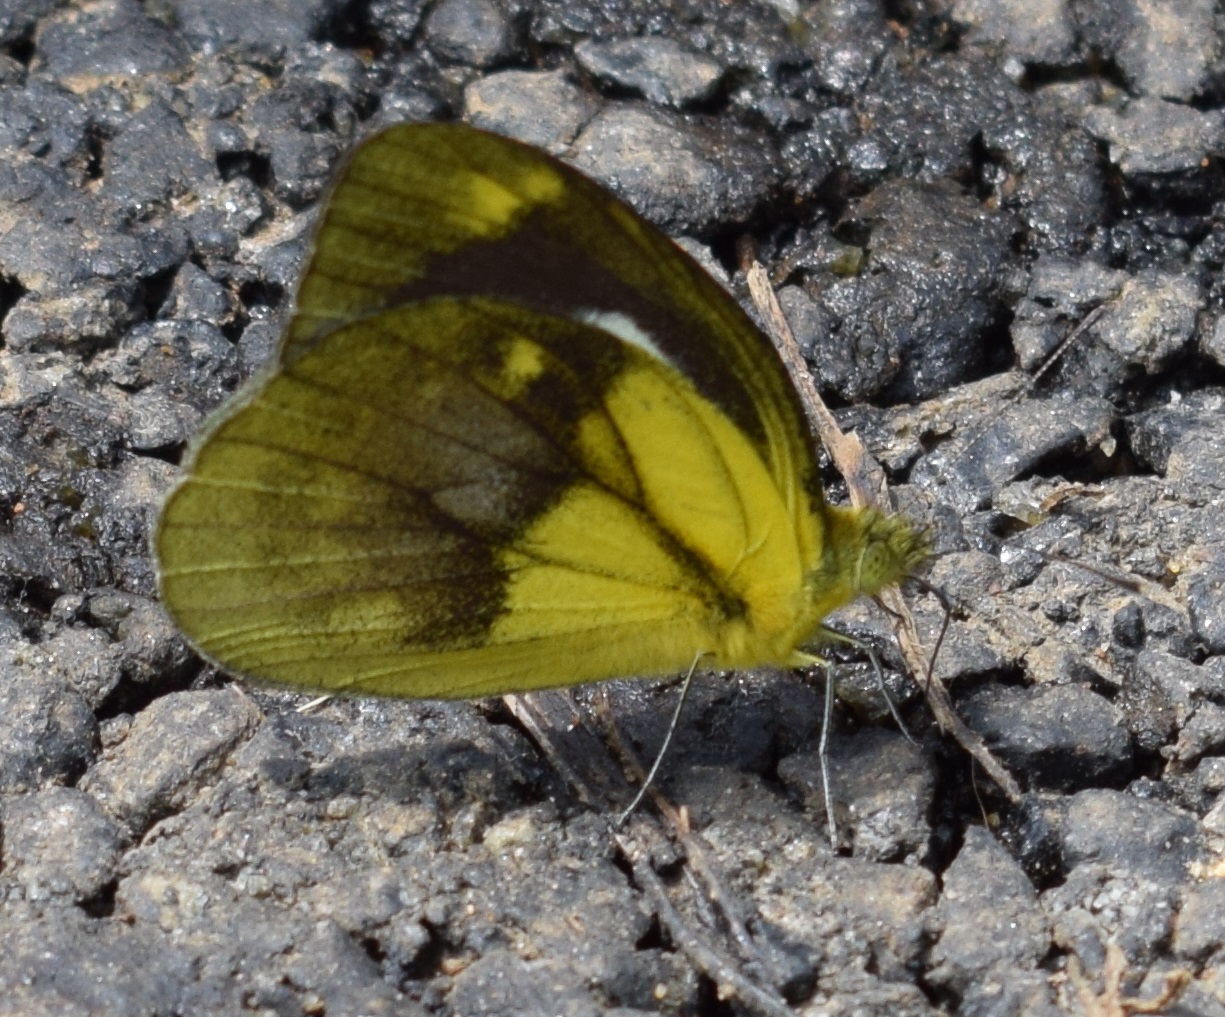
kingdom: Animalia
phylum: Arthropoda
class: Insecta
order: Lepidoptera
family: Pieridae
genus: Cepora
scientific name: Cepora nadina
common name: Lesser gull
